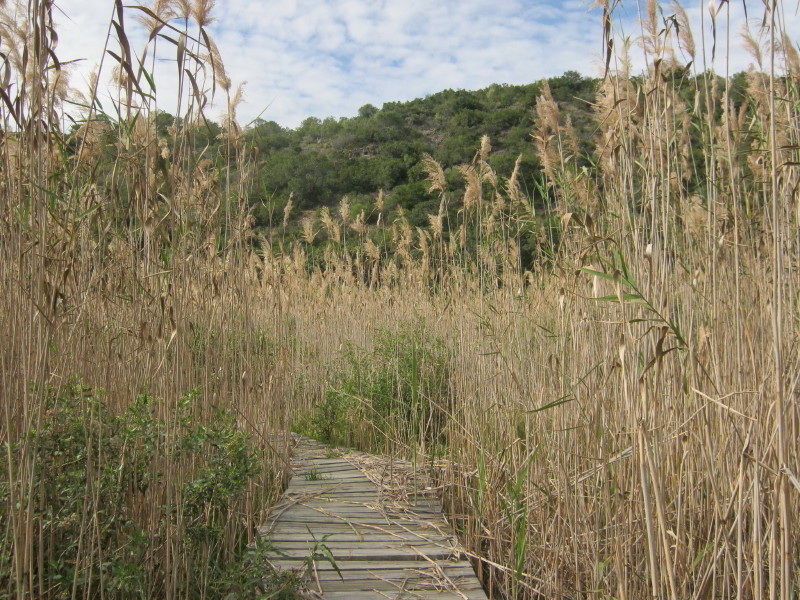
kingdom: Plantae
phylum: Tracheophyta
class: Liliopsida
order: Poales
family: Poaceae
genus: Phragmites
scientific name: Phragmites australis
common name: Common reed
